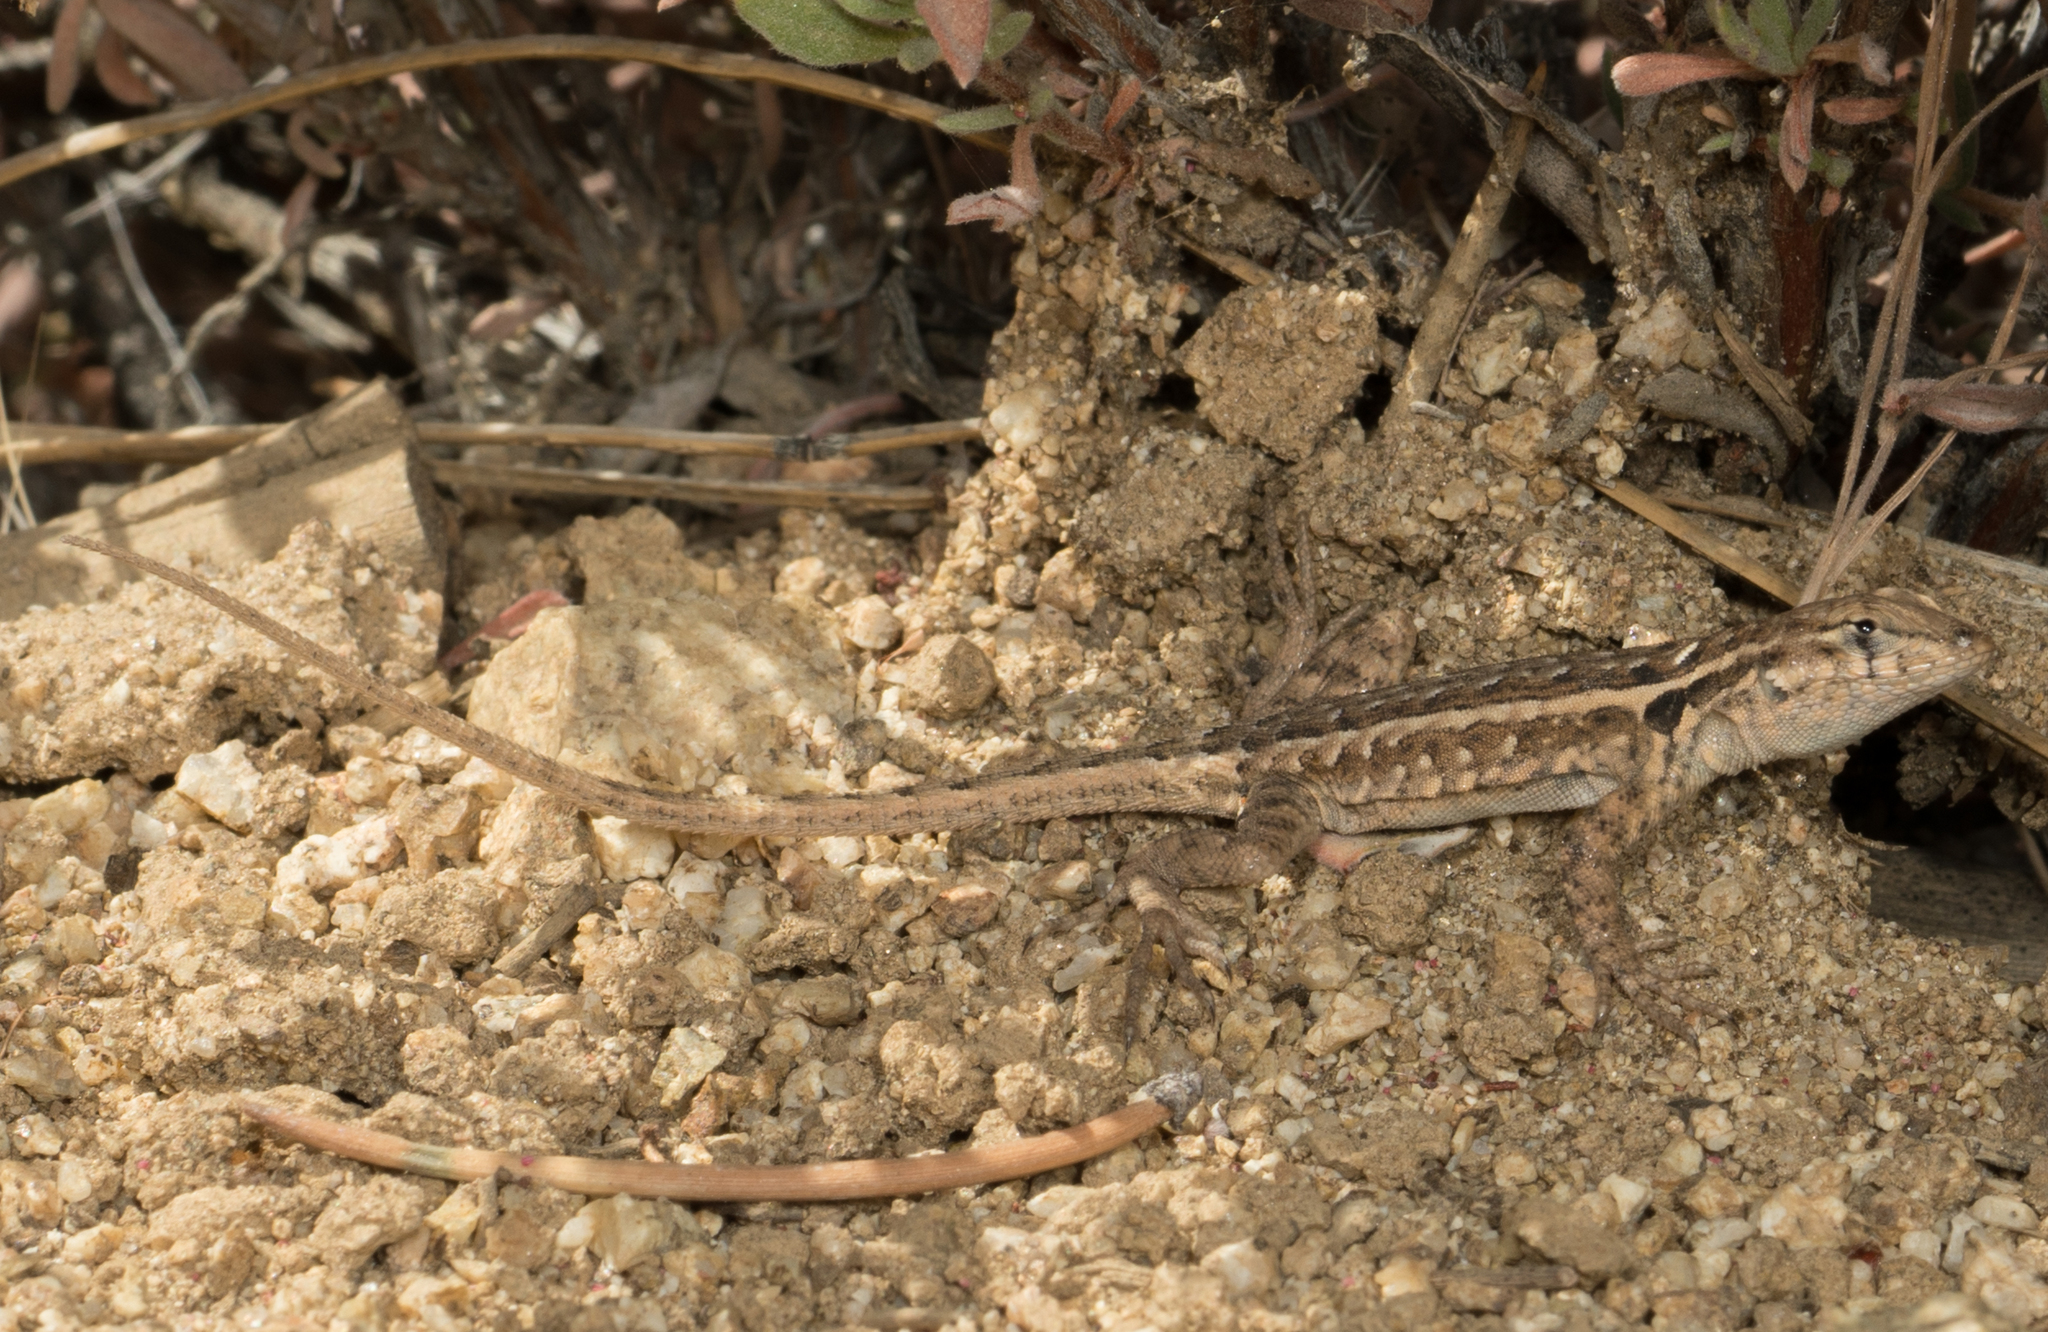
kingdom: Animalia
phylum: Chordata
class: Squamata
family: Phrynosomatidae
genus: Uta
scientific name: Uta stansburiana
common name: Side-blotched lizard
